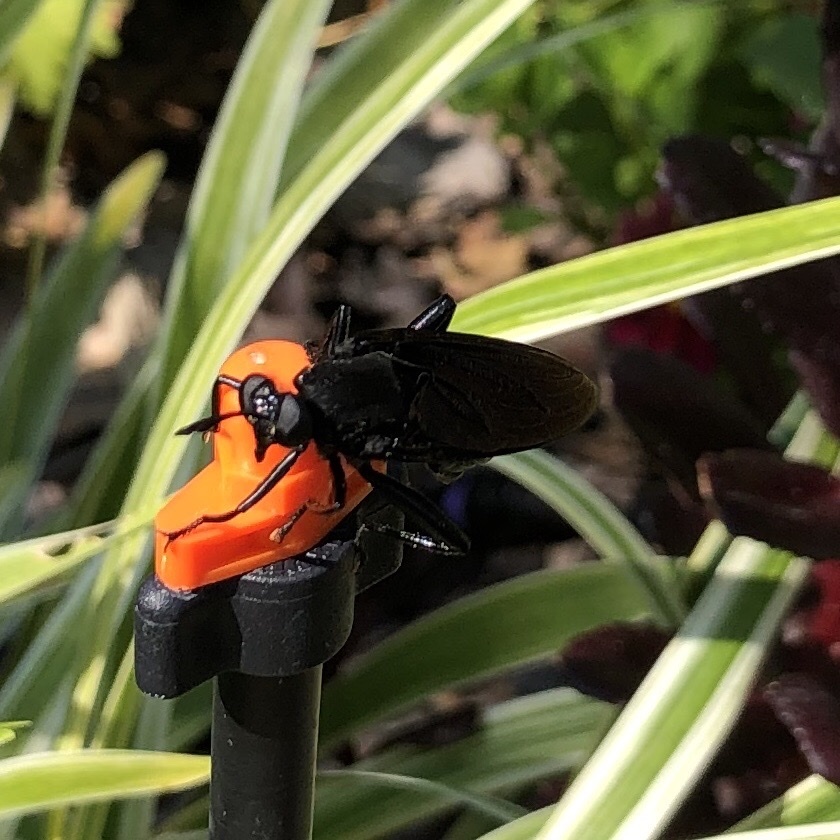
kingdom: Animalia
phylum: Arthropoda
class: Insecta
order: Diptera
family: Mydidae
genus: Mydas
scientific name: Mydas clavatus
